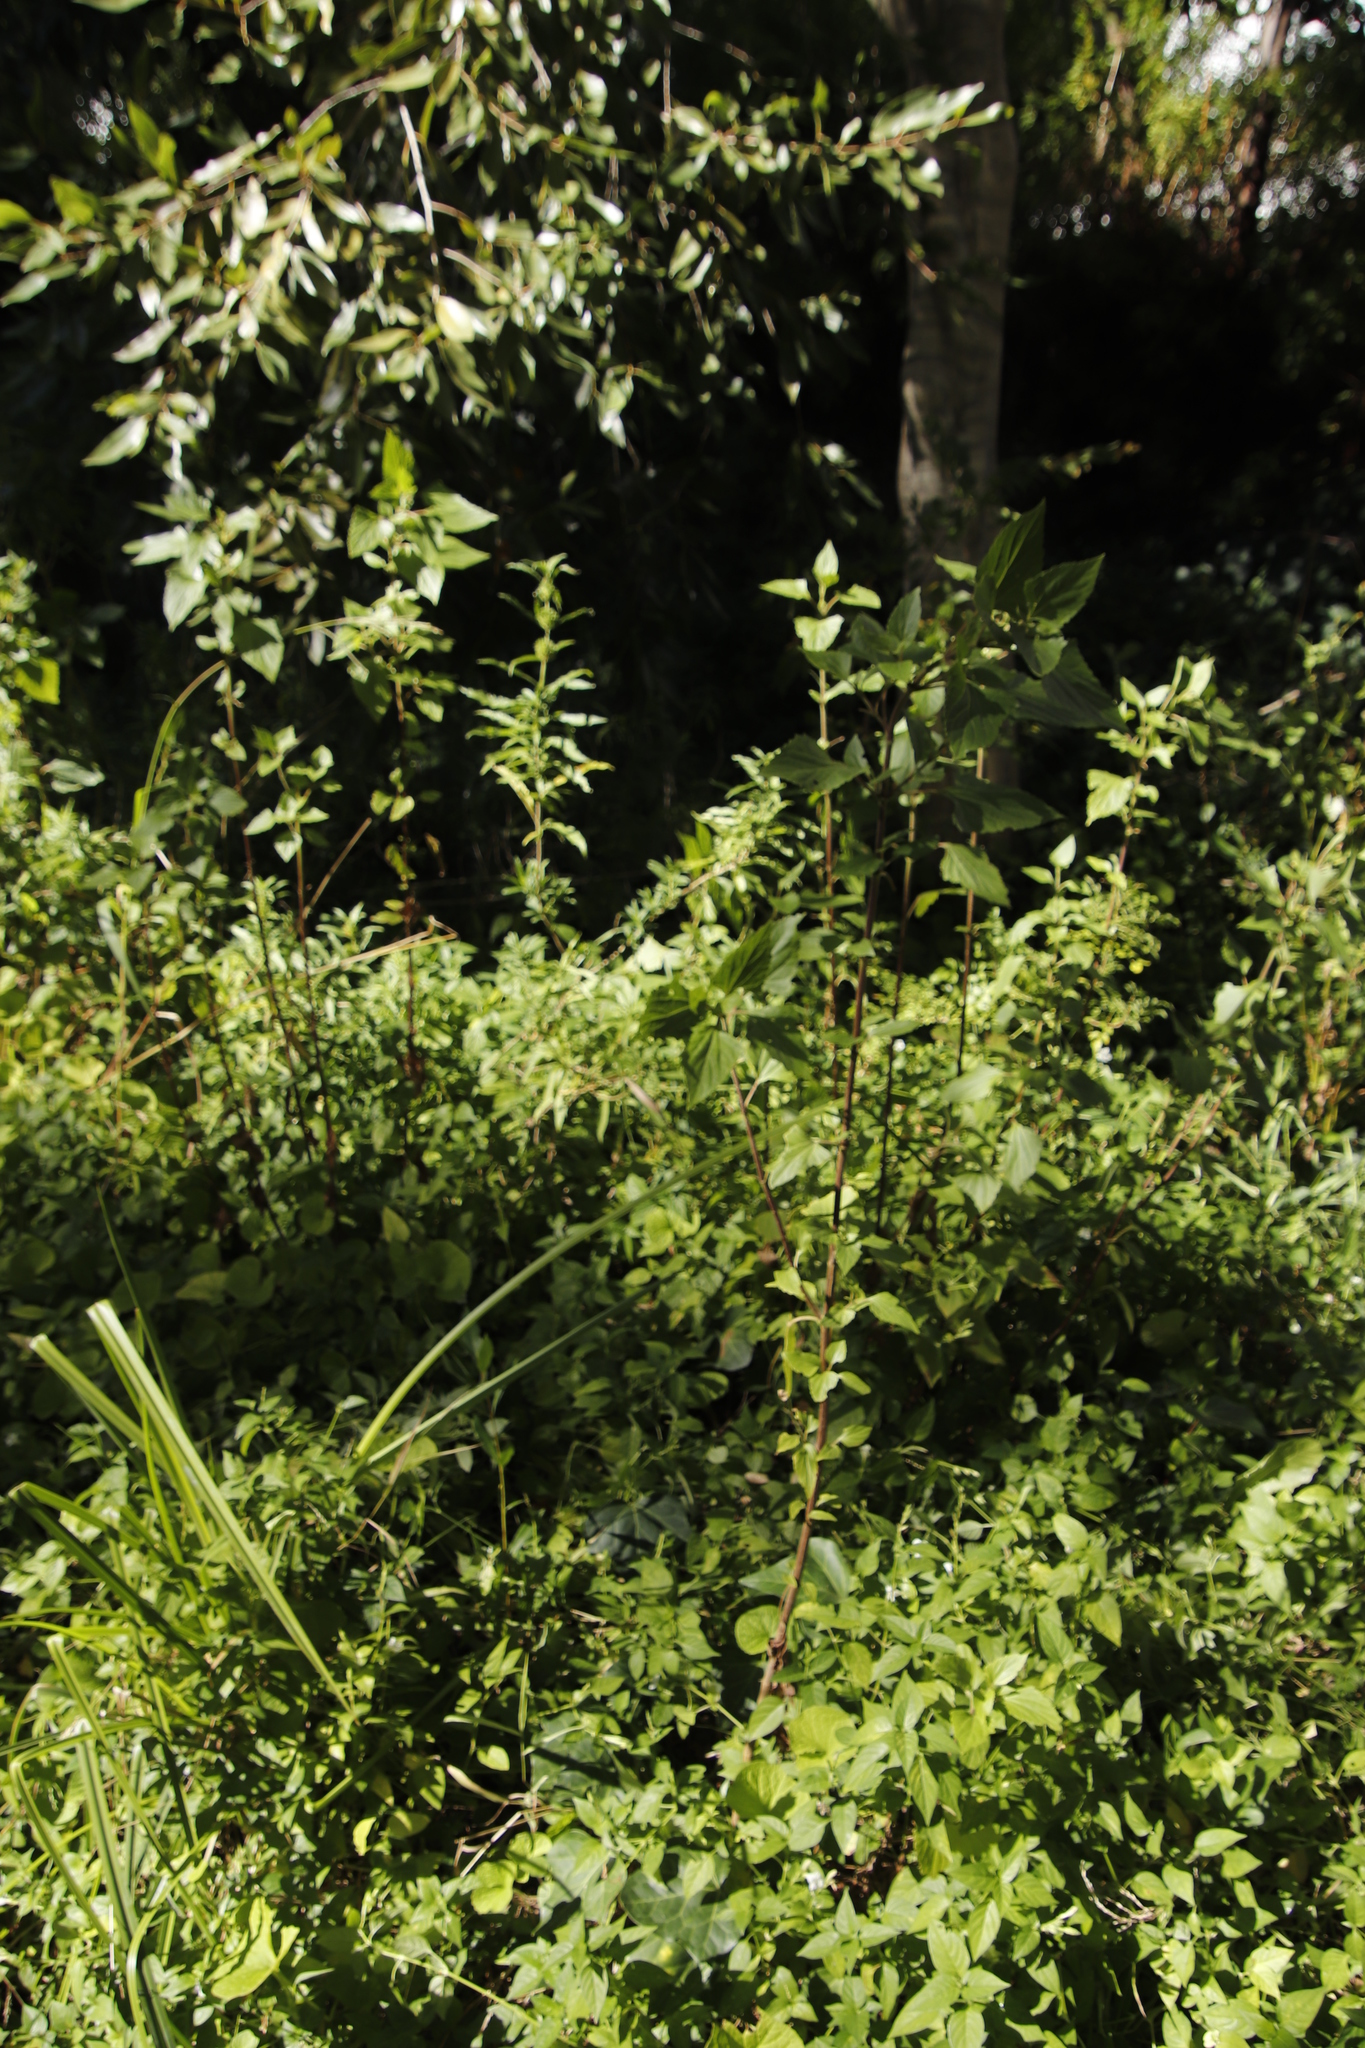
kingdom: Plantae
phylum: Tracheophyta
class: Magnoliopsida
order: Asterales
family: Asteraceae
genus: Ageratina
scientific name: Ageratina adenophora
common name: Sticky snakeroot
